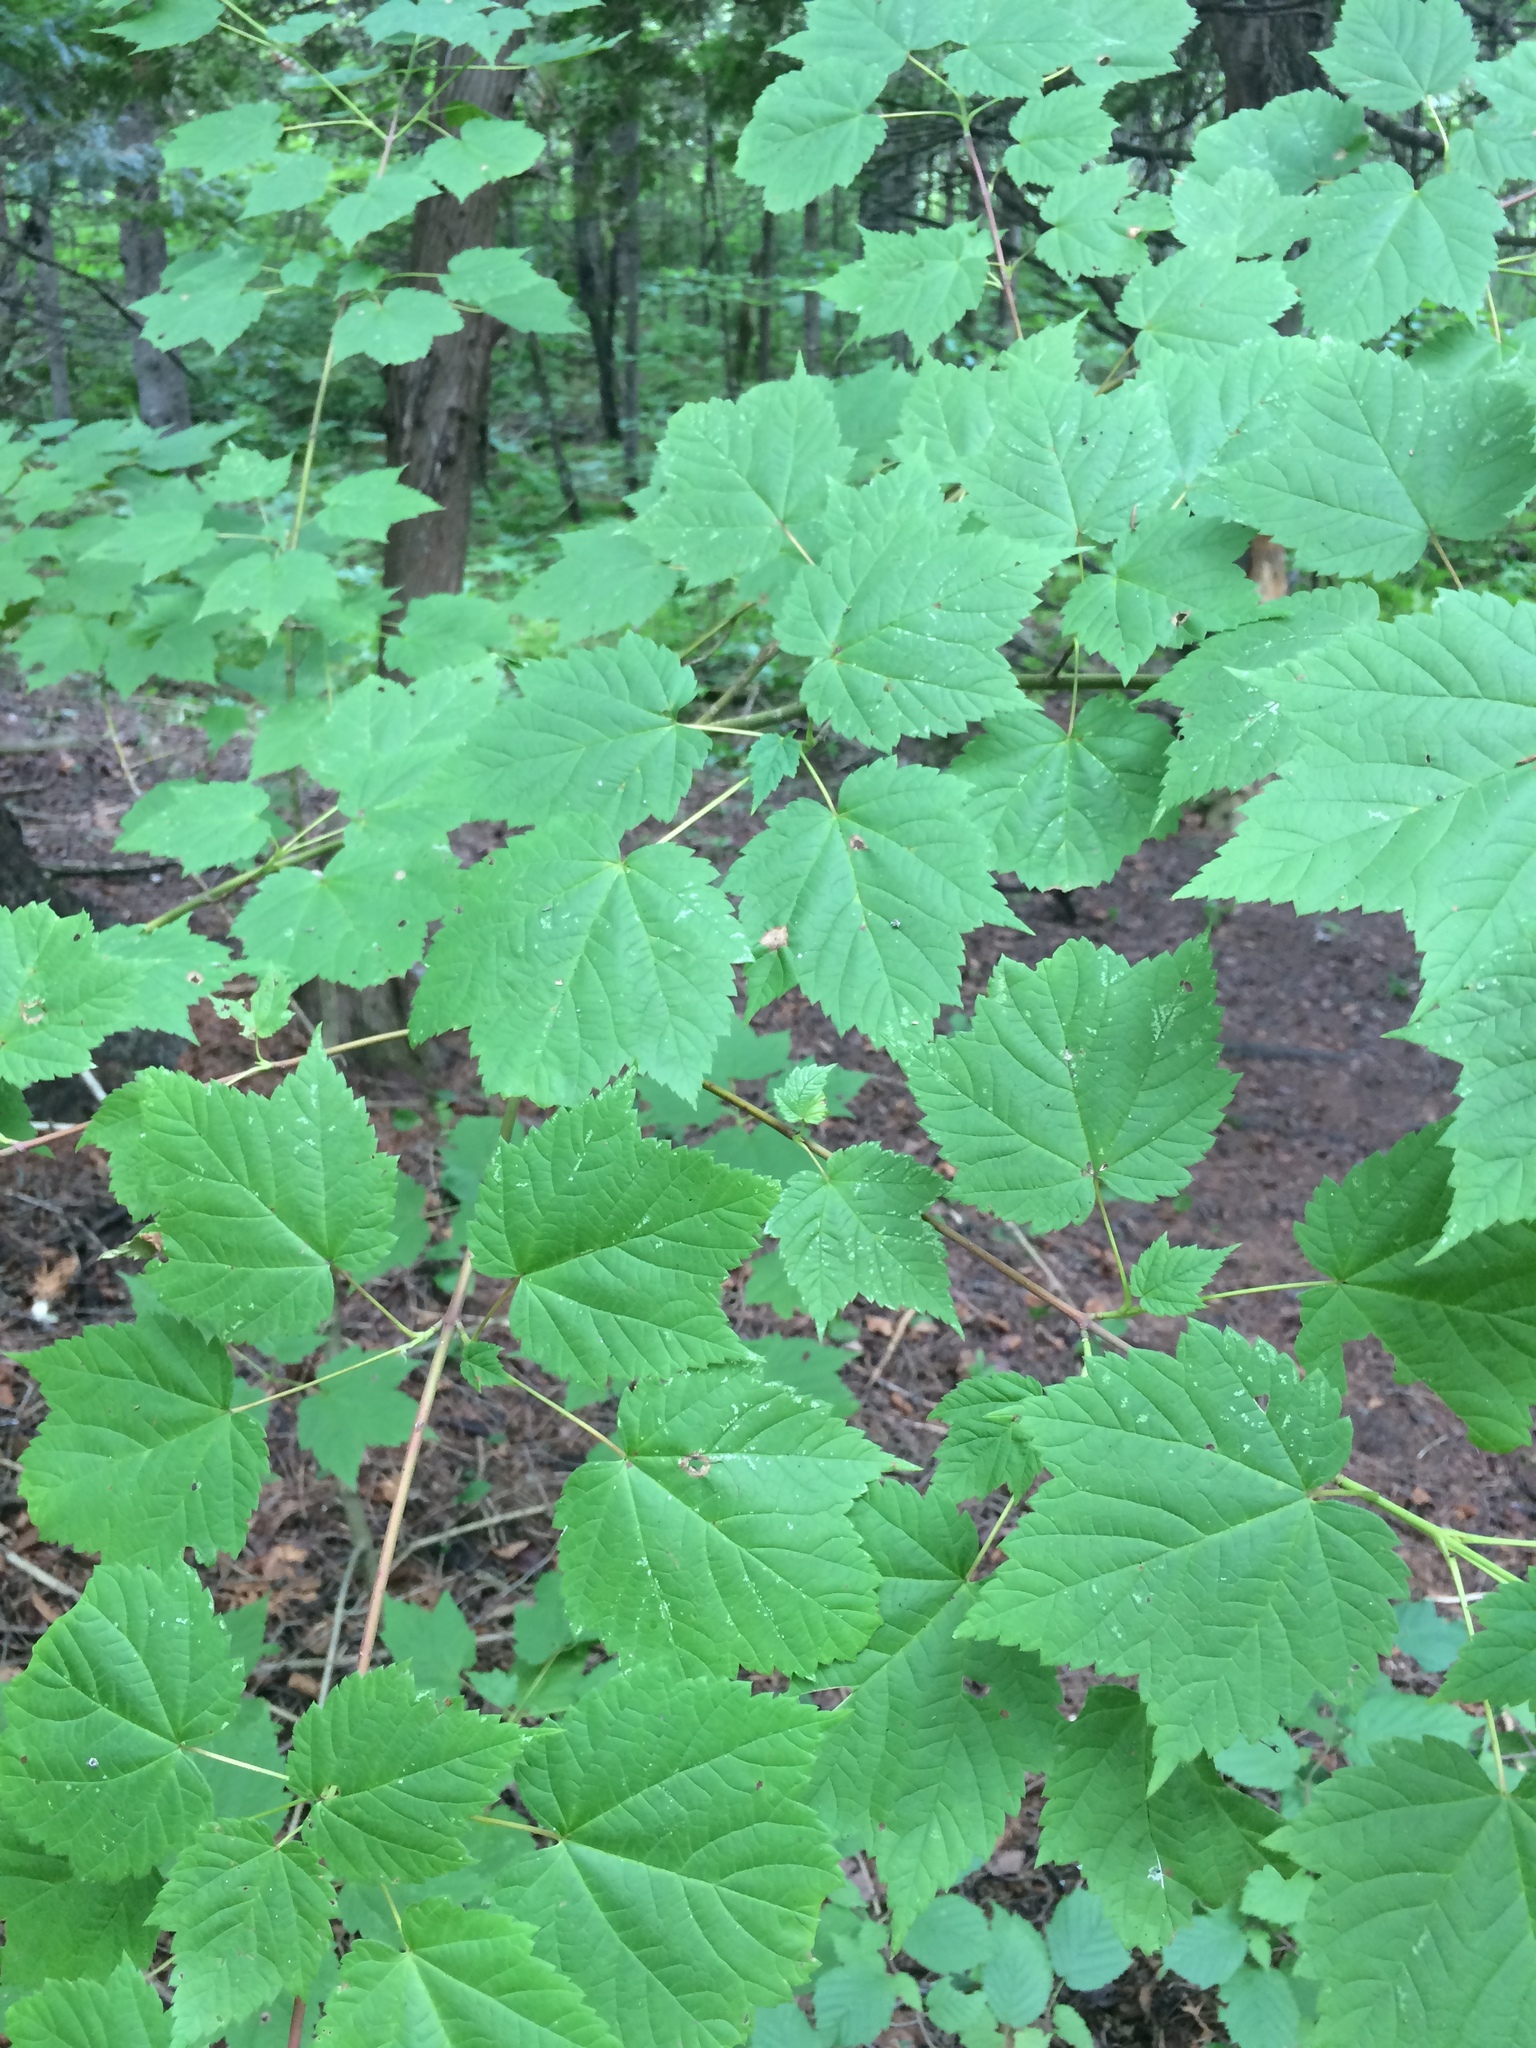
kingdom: Plantae
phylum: Tracheophyta
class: Magnoliopsida
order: Sapindales
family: Sapindaceae
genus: Acer
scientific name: Acer spicatum
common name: Mountain maple
